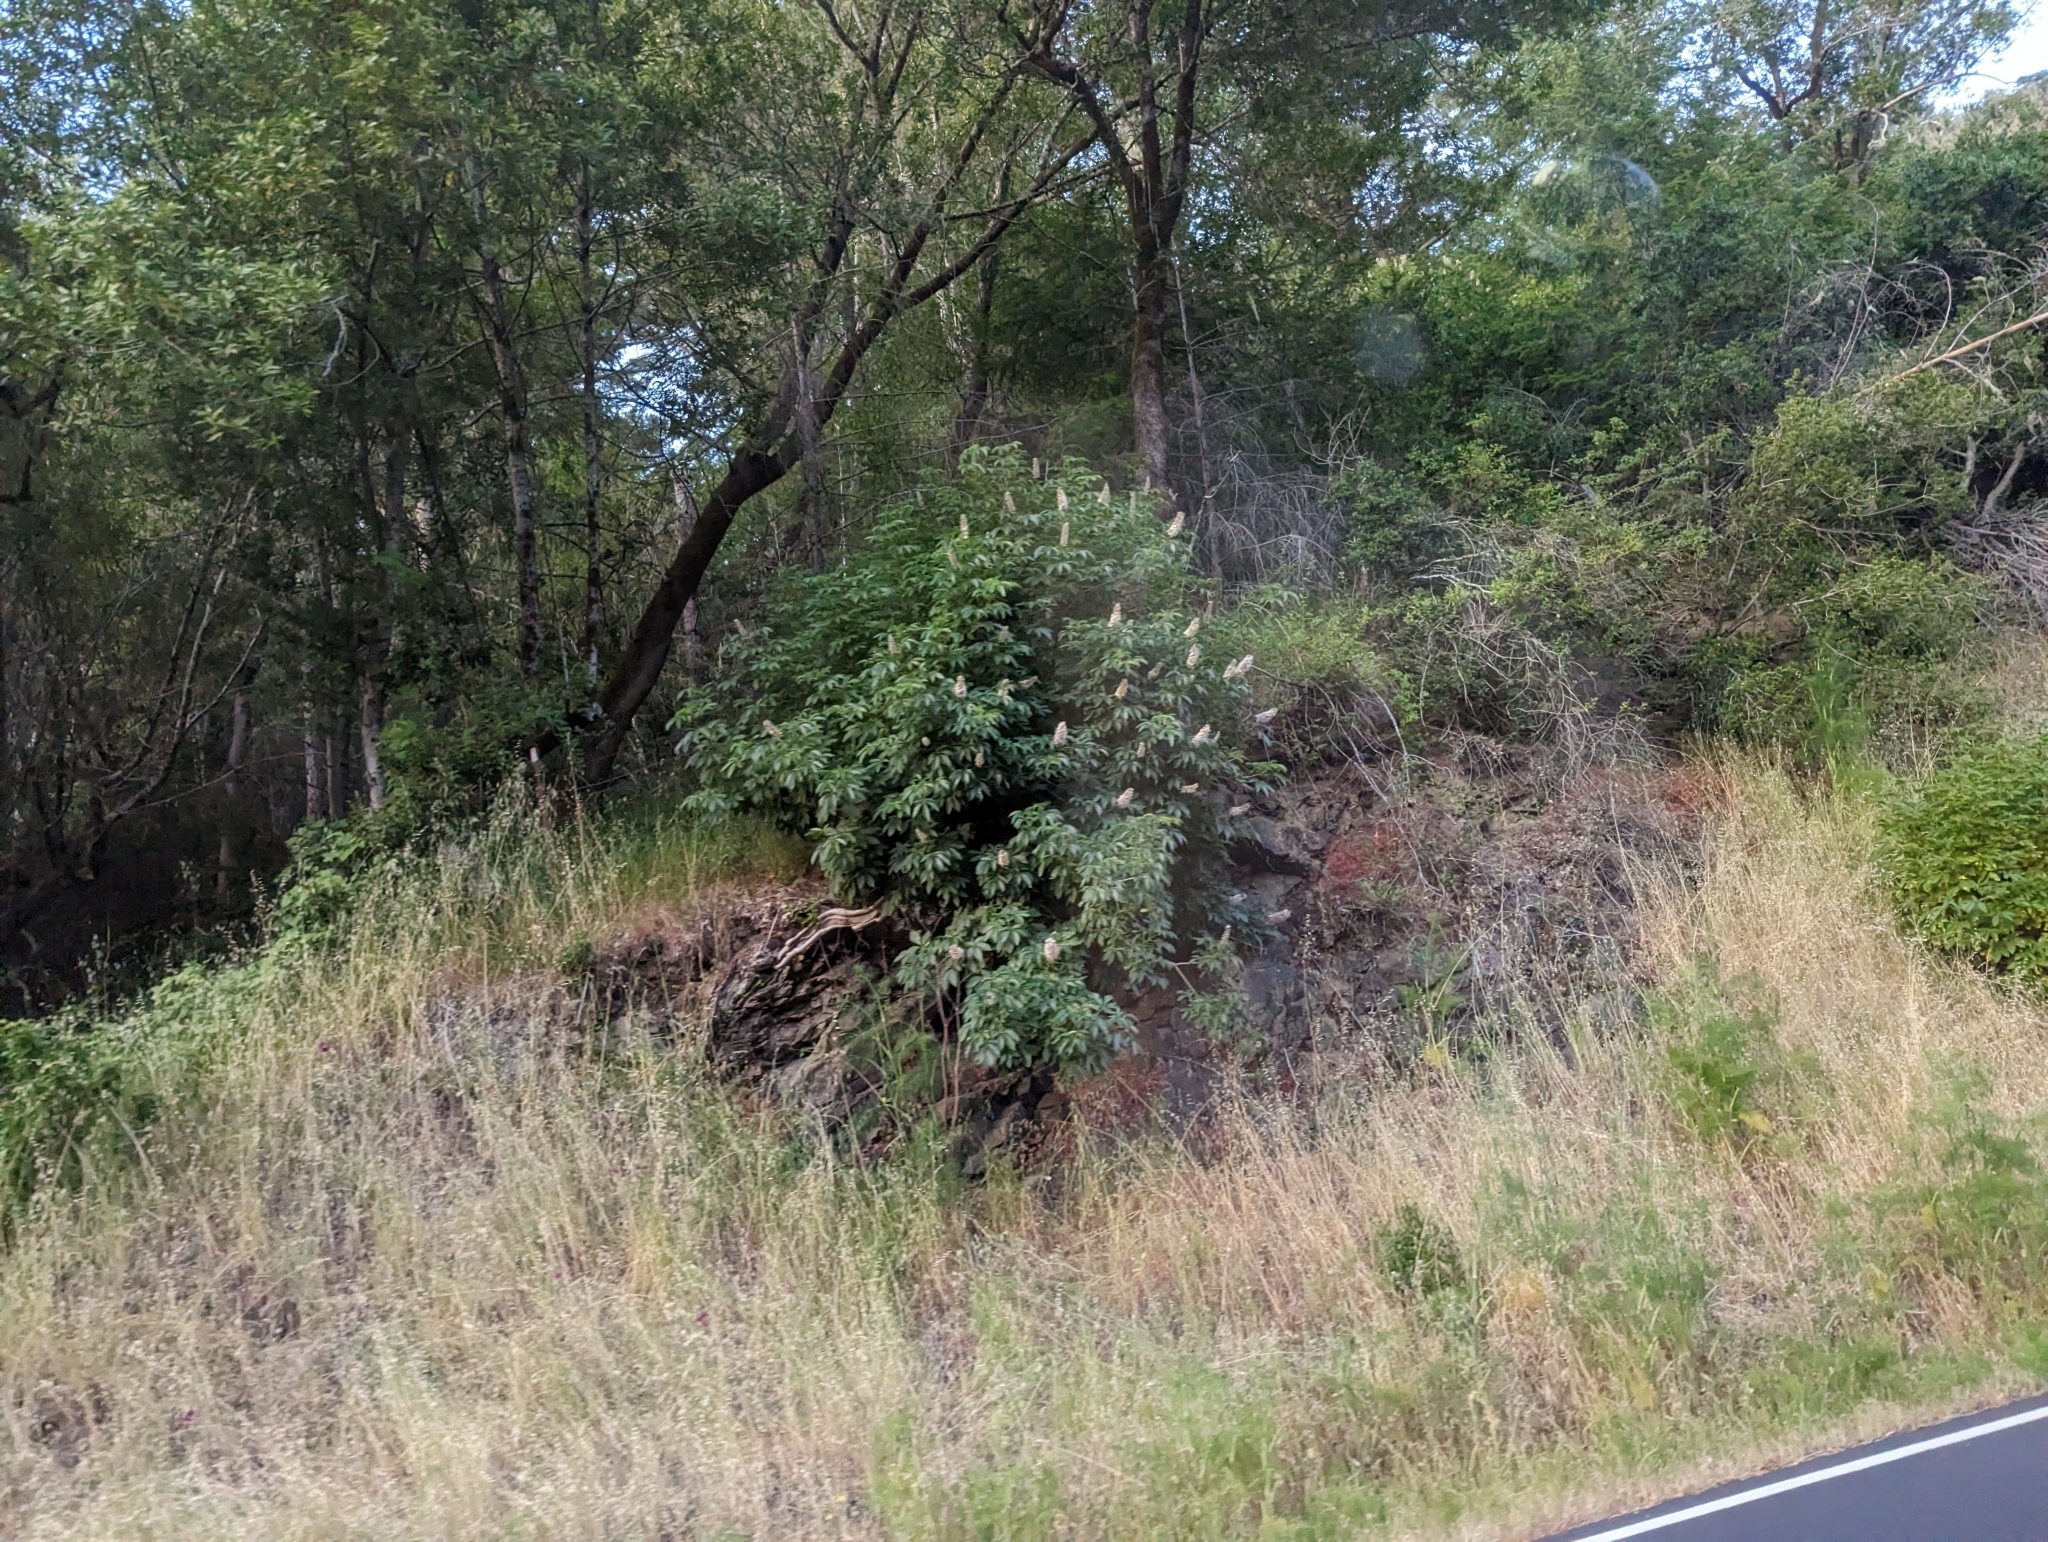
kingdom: Plantae
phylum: Tracheophyta
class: Magnoliopsida
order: Sapindales
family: Sapindaceae
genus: Aesculus
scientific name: Aesculus californica
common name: California buckeye
